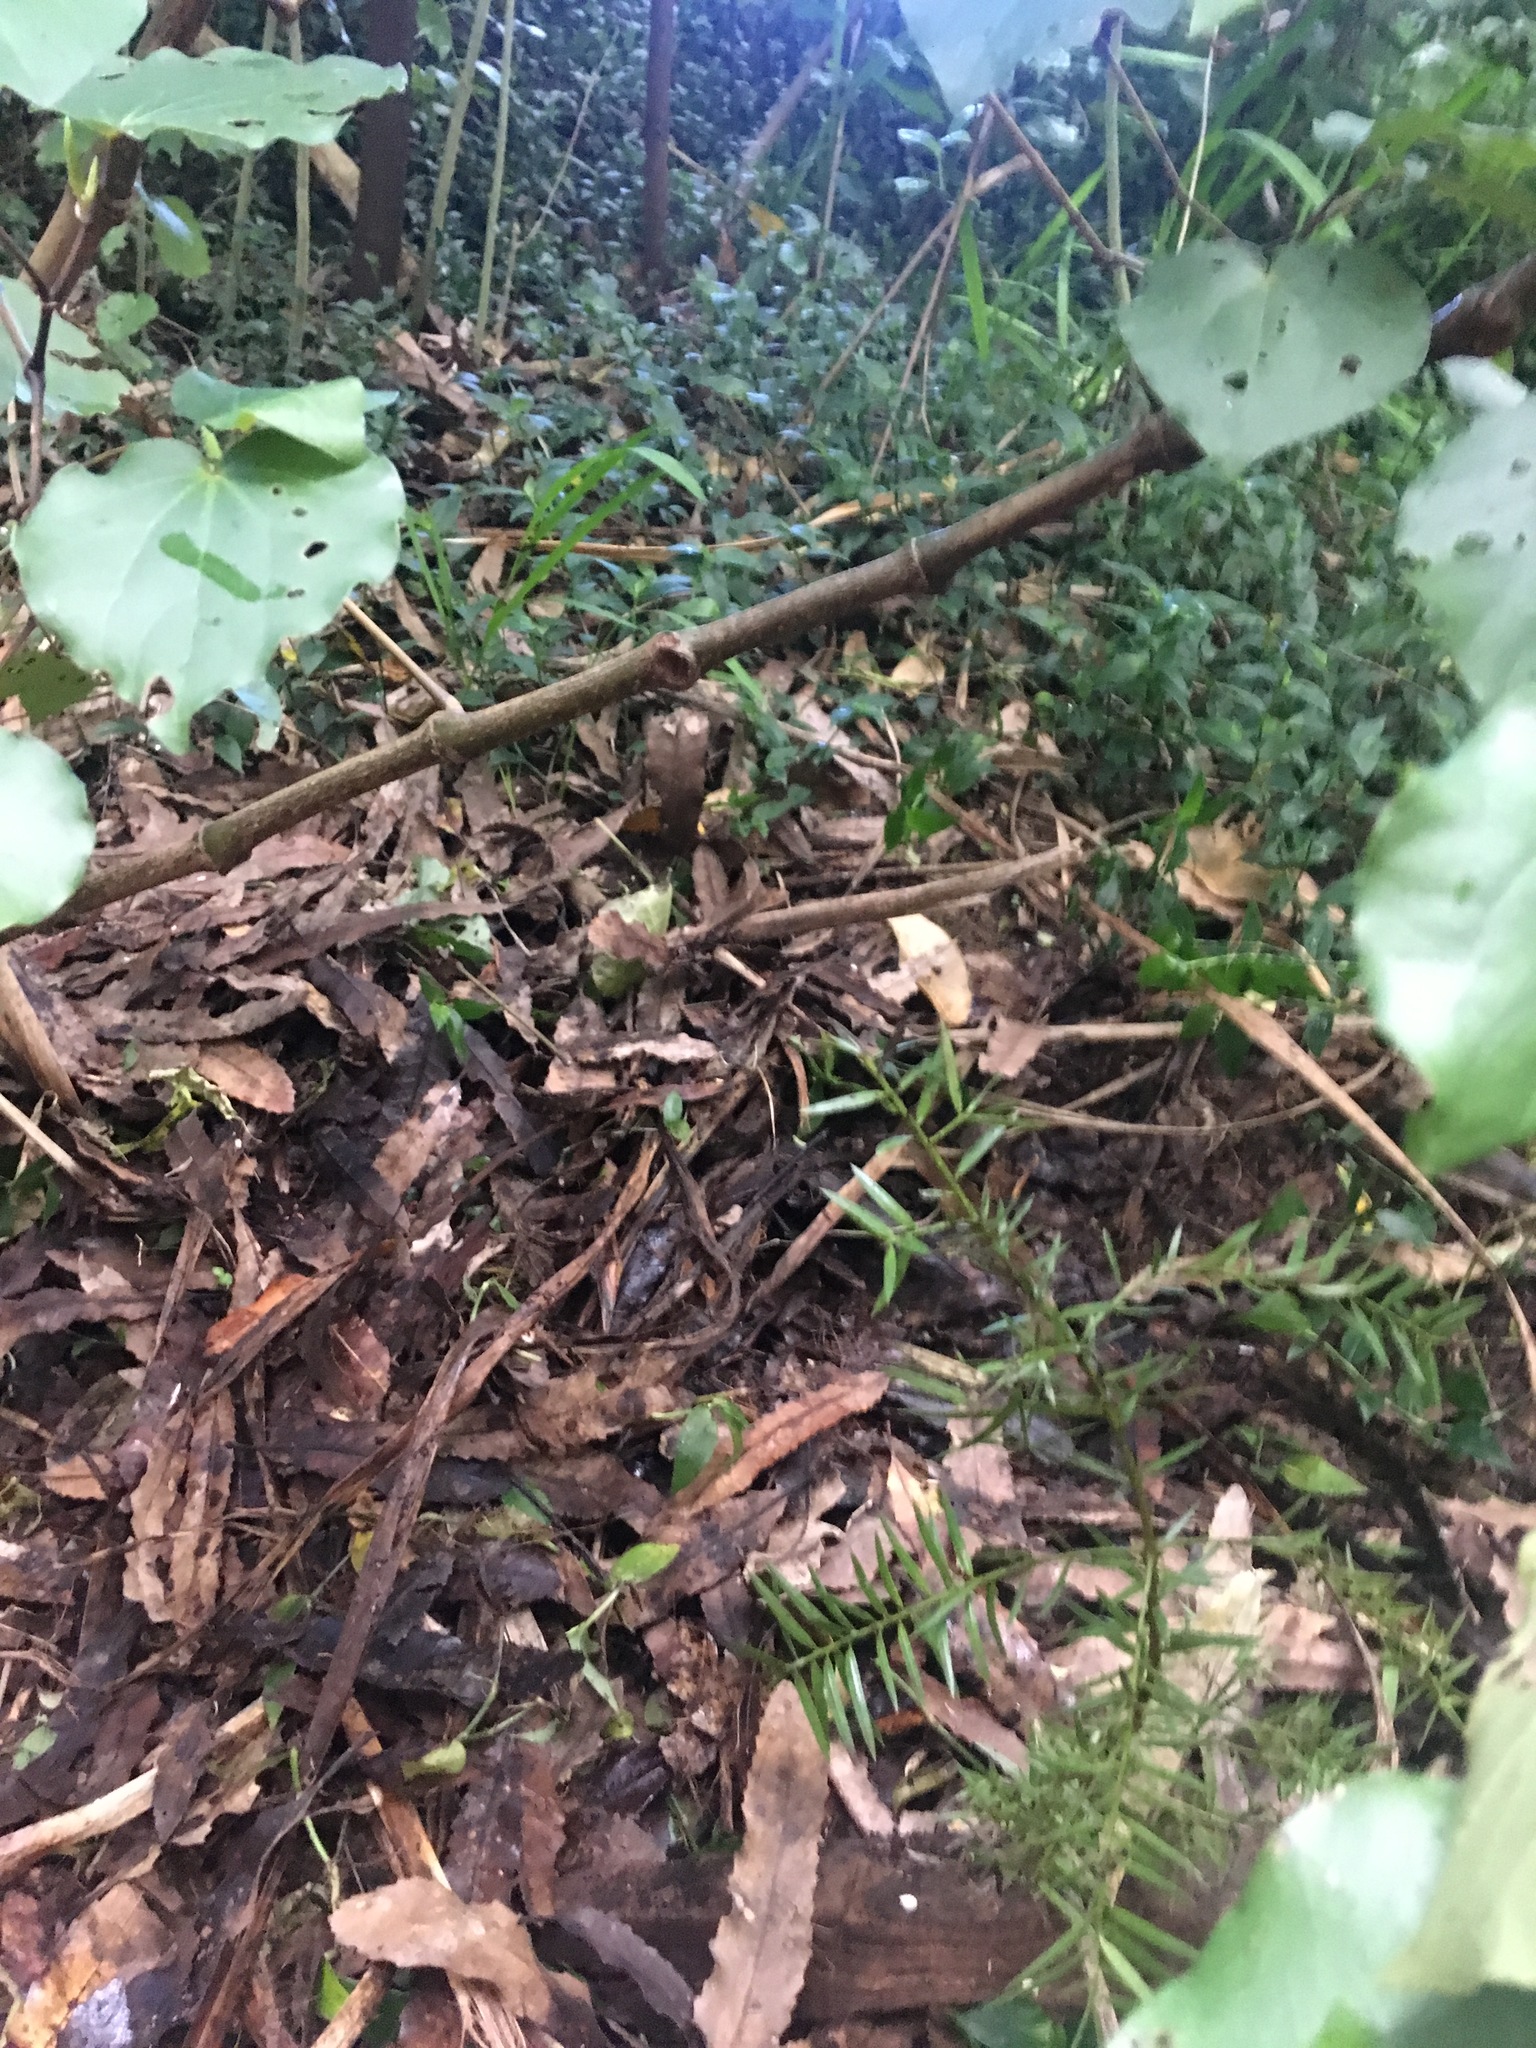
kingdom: Plantae
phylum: Tracheophyta
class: Pinopsida
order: Pinales
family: Podocarpaceae
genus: Podocarpus
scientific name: Podocarpus totara
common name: Totara
